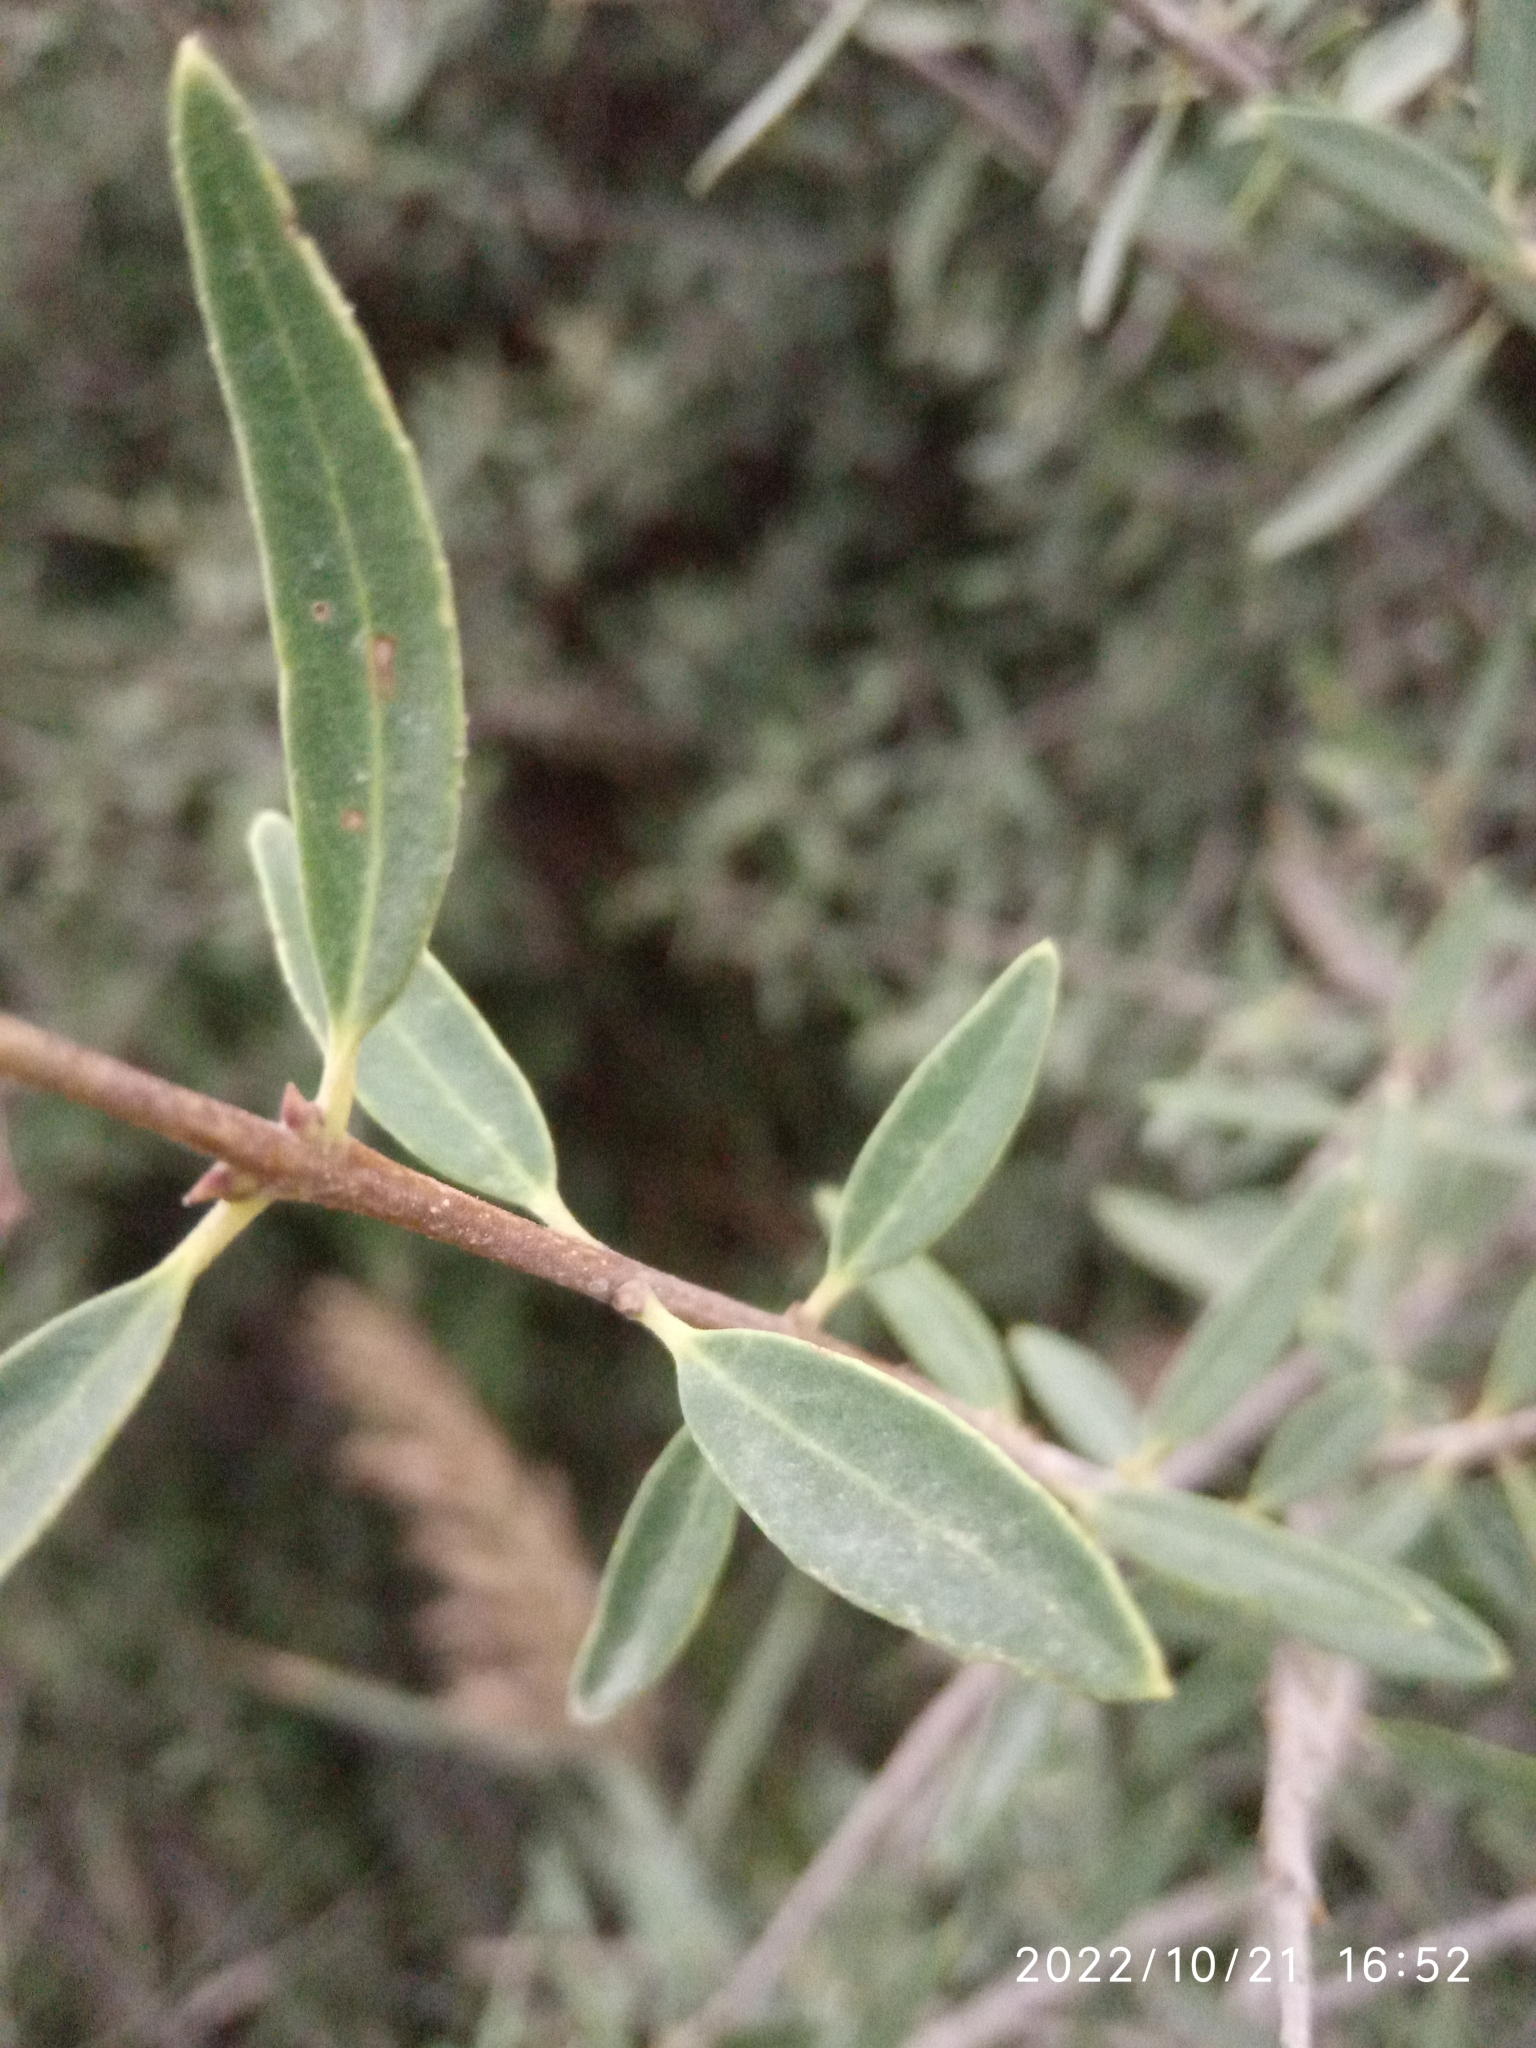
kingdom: Plantae
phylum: Tracheophyta
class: Magnoliopsida
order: Lamiales
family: Oleaceae
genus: Phillyrea
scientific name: Phillyrea angustifolia
